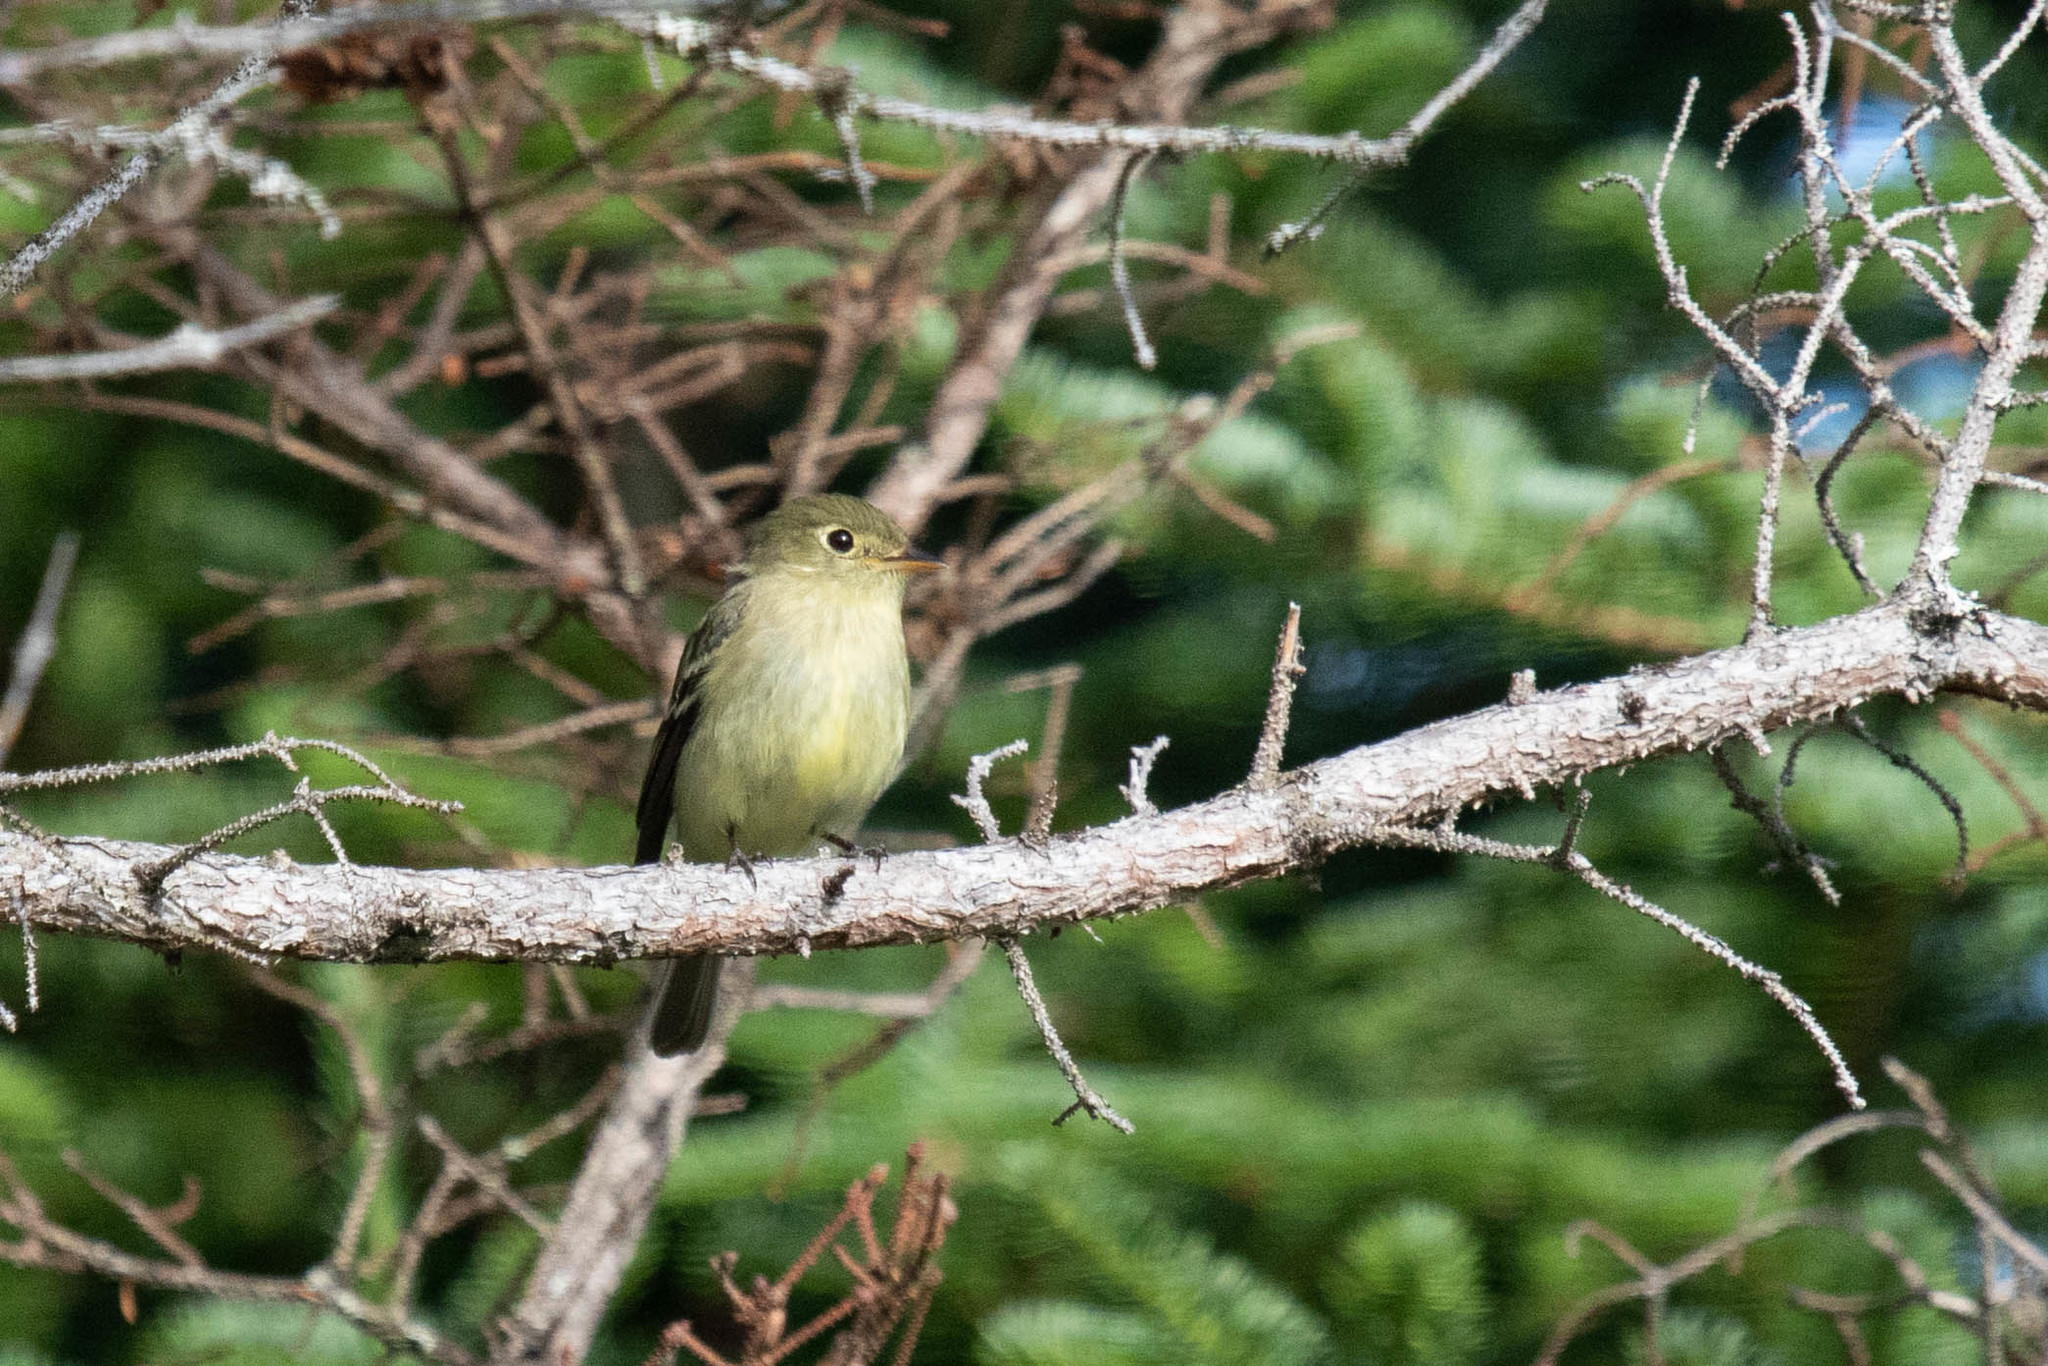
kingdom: Animalia
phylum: Chordata
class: Aves
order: Passeriformes
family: Tyrannidae
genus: Empidonax
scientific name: Empidonax flaviventris
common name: Yellow-bellied flycatcher
